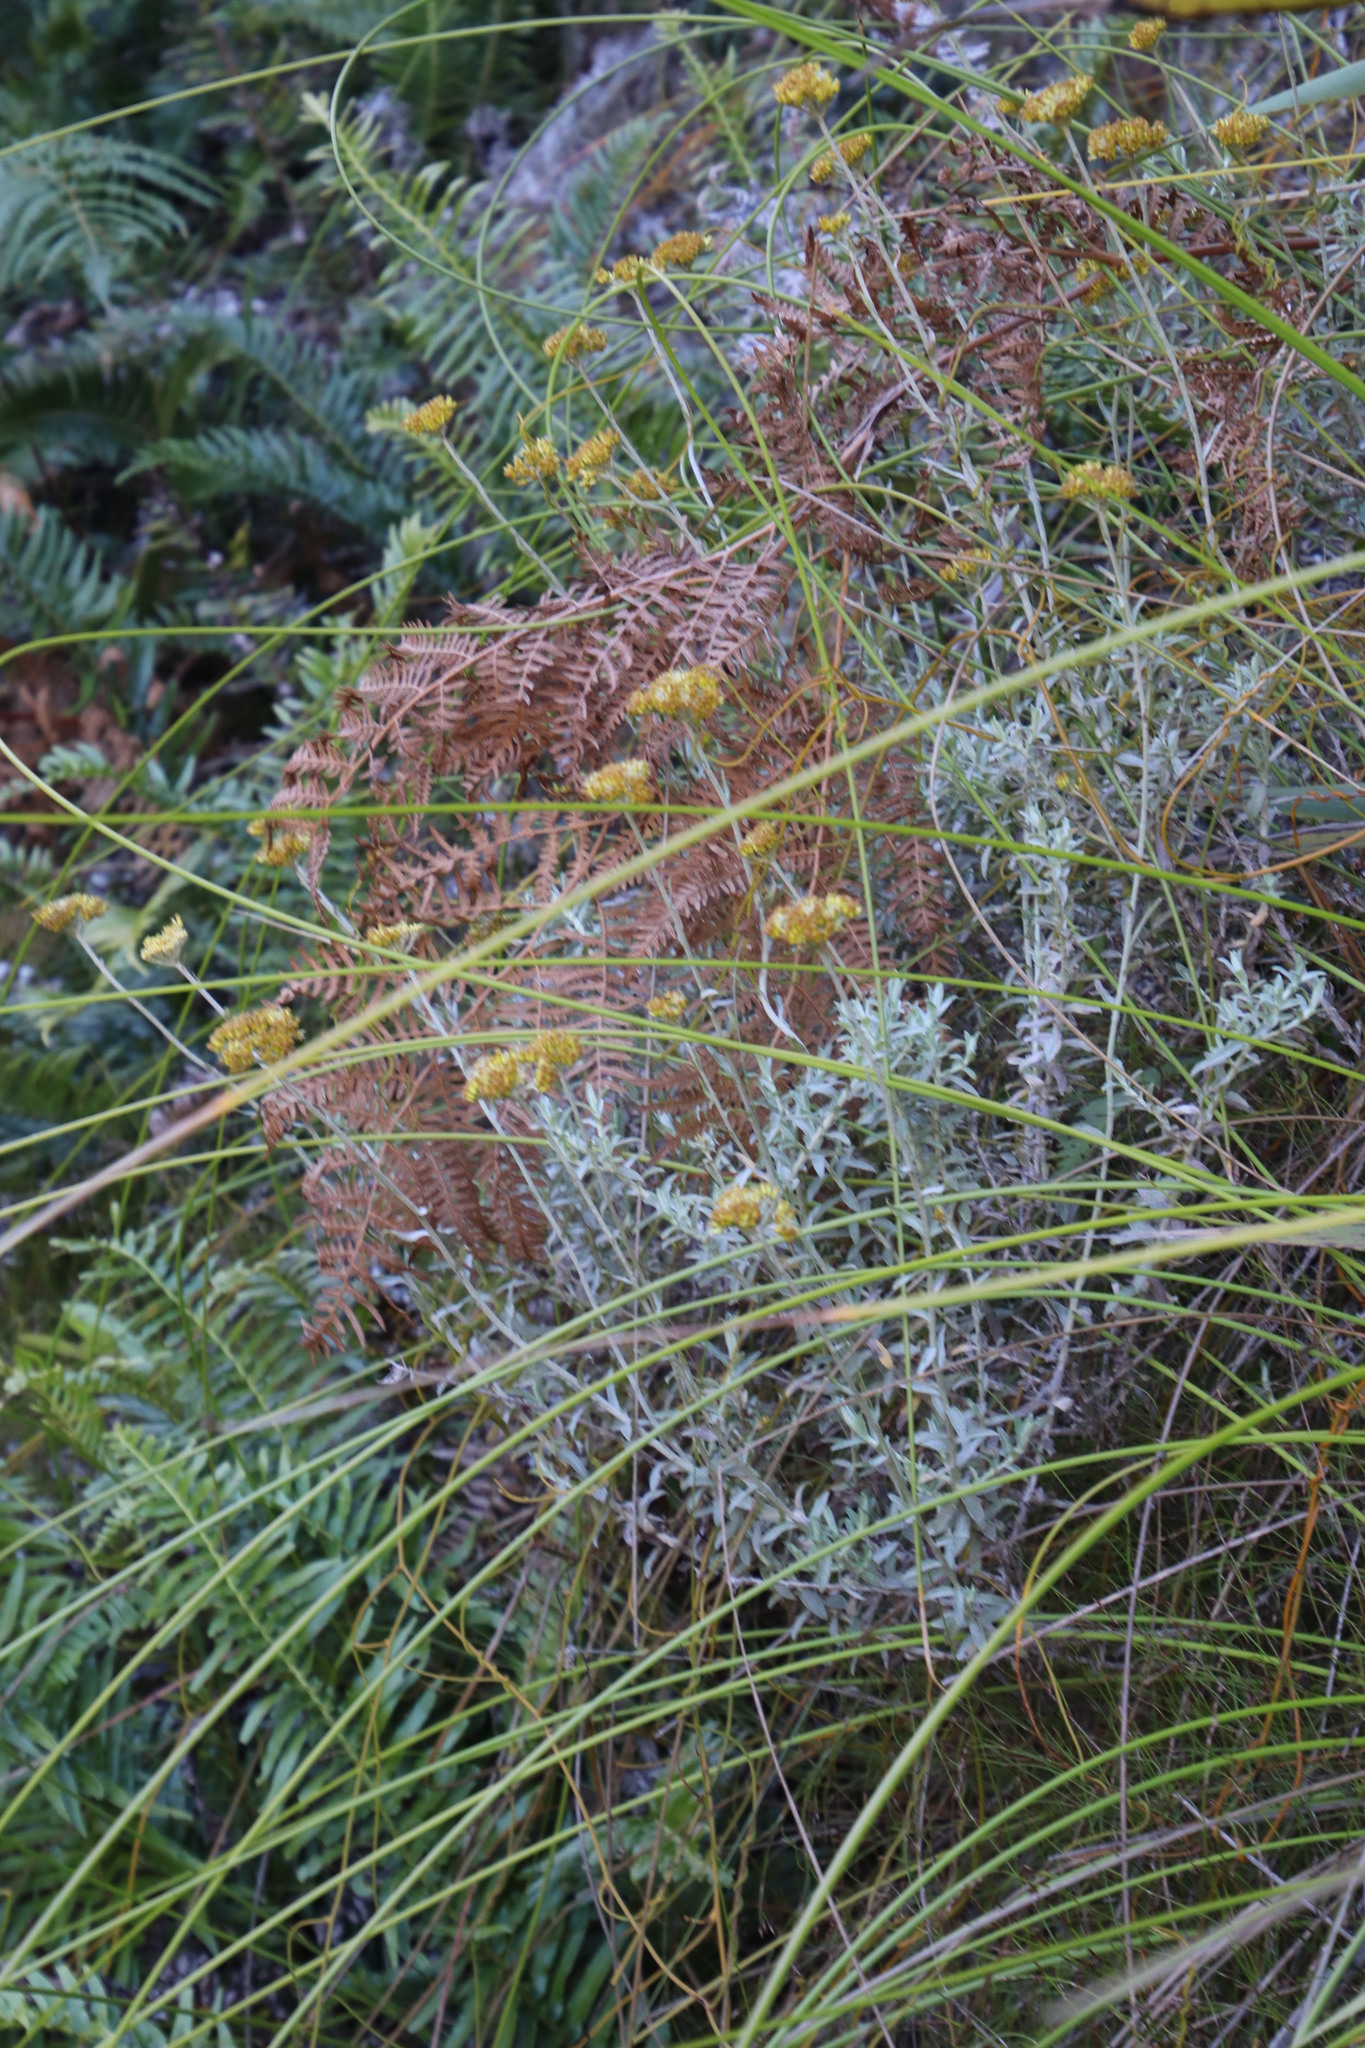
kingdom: Plantae
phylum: Tracheophyta
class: Magnoliopsida
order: Asterales
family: Asteraceae
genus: Helichrysum
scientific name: Helichrysum cymosum
